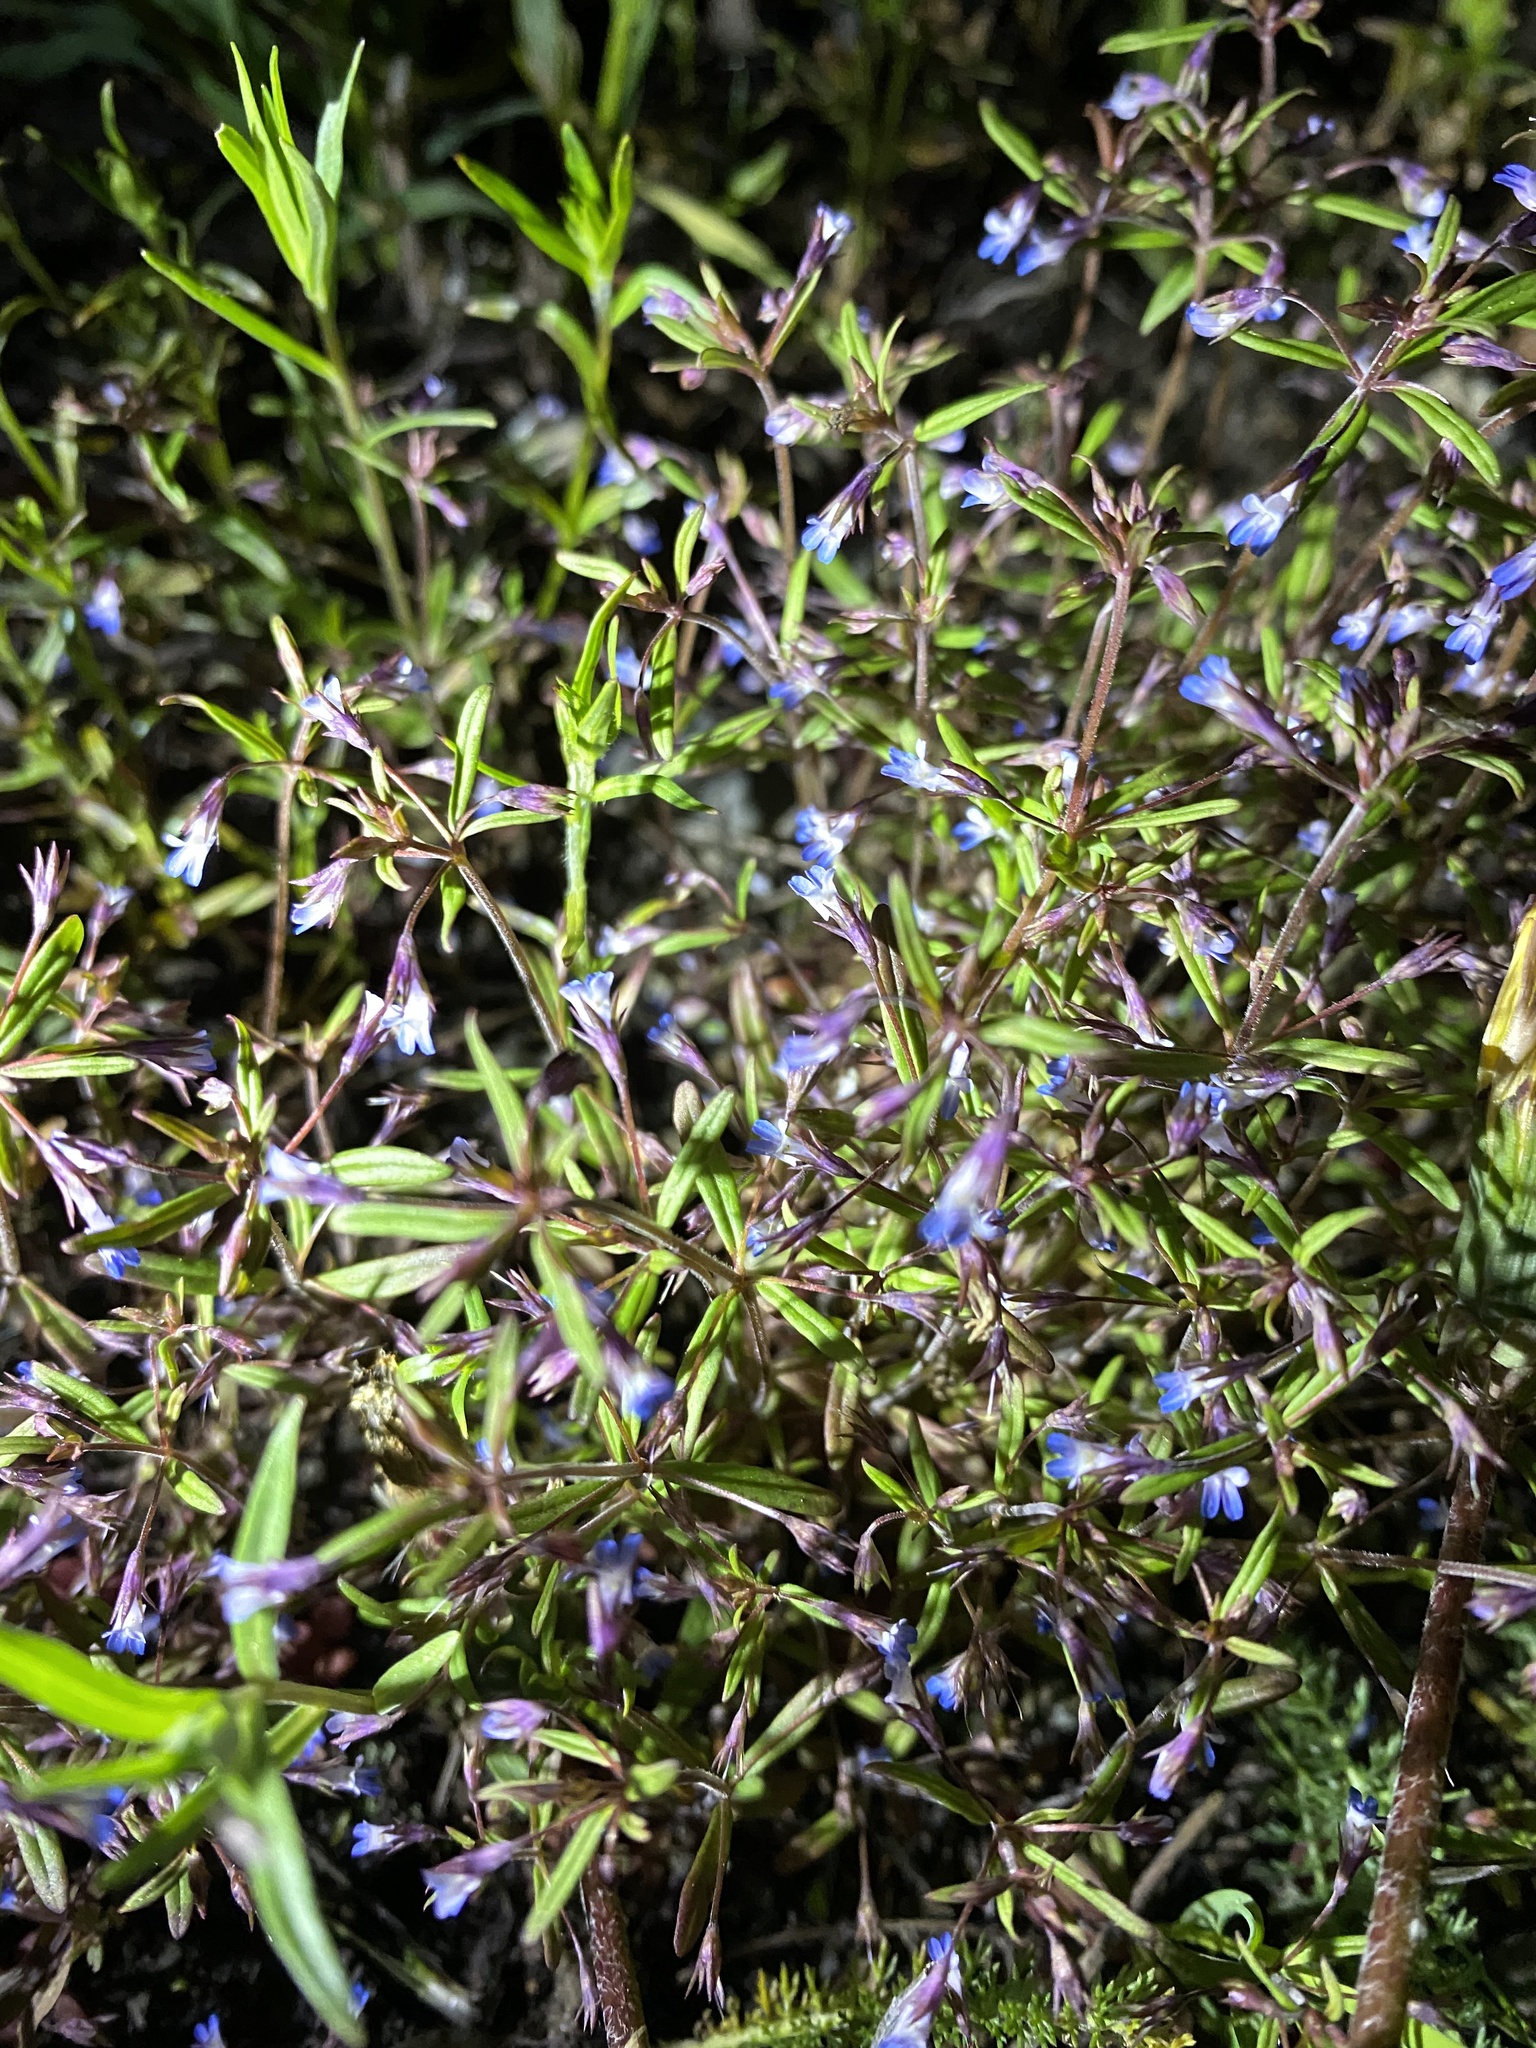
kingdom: Plantae
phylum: Tracheophyta
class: Magnoliopsida
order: Lamiales
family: Plantaginaceae
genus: Collinsia
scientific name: Collinsia parviflora
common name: Blue-lips
